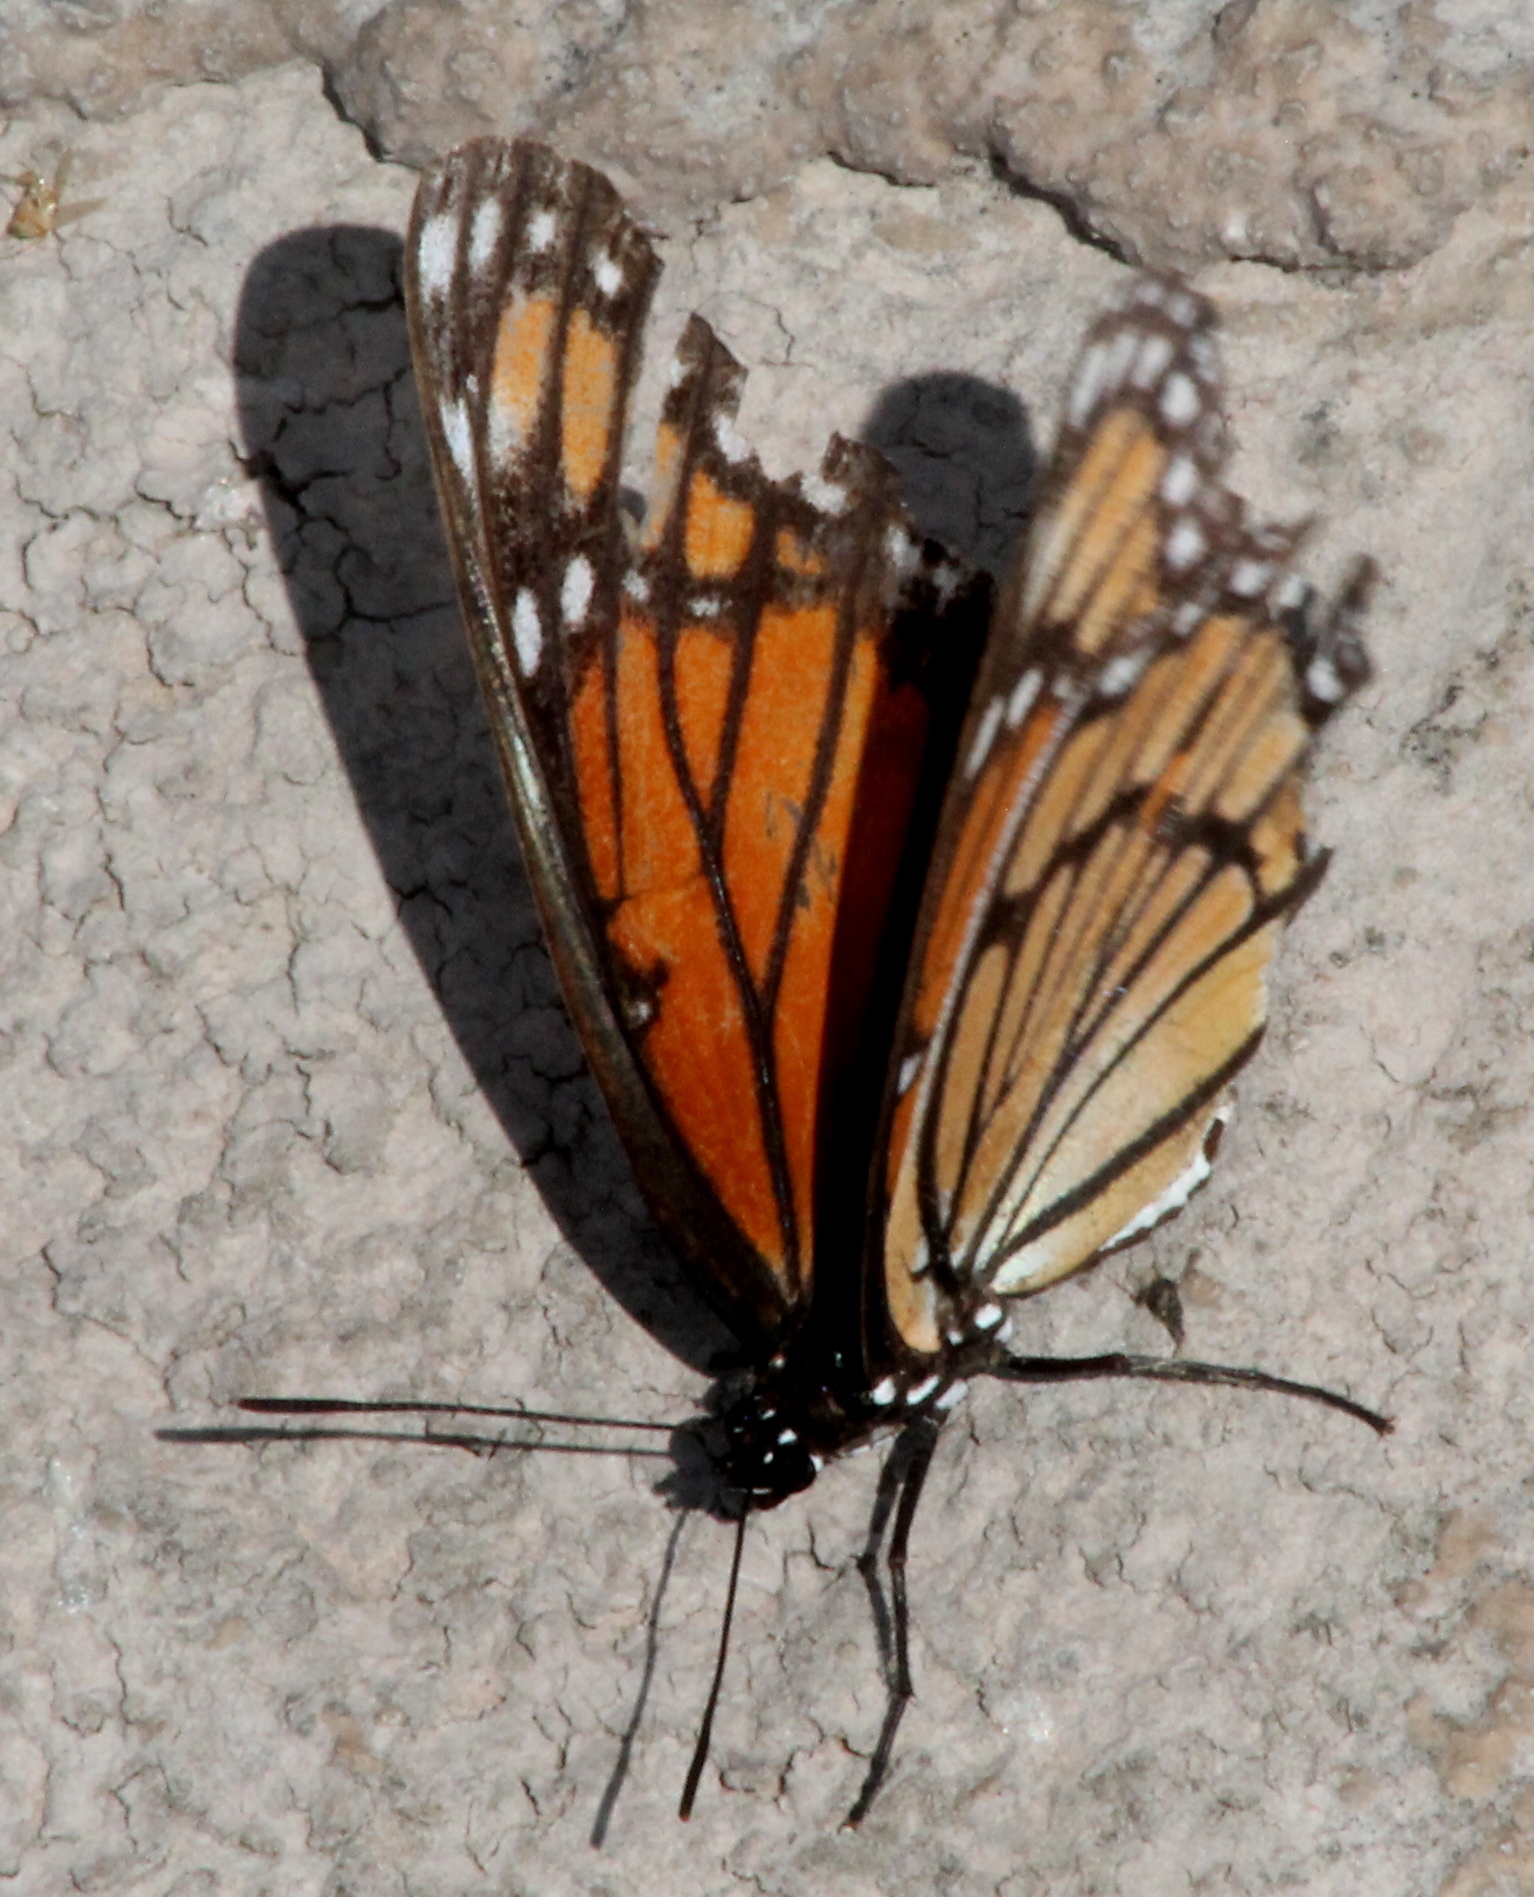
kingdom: Animalia
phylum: Arthropoda
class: Insecta
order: Lepidoptera
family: Nymphalidae
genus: Limenitis
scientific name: Limenitis archippus
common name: Viceroy
